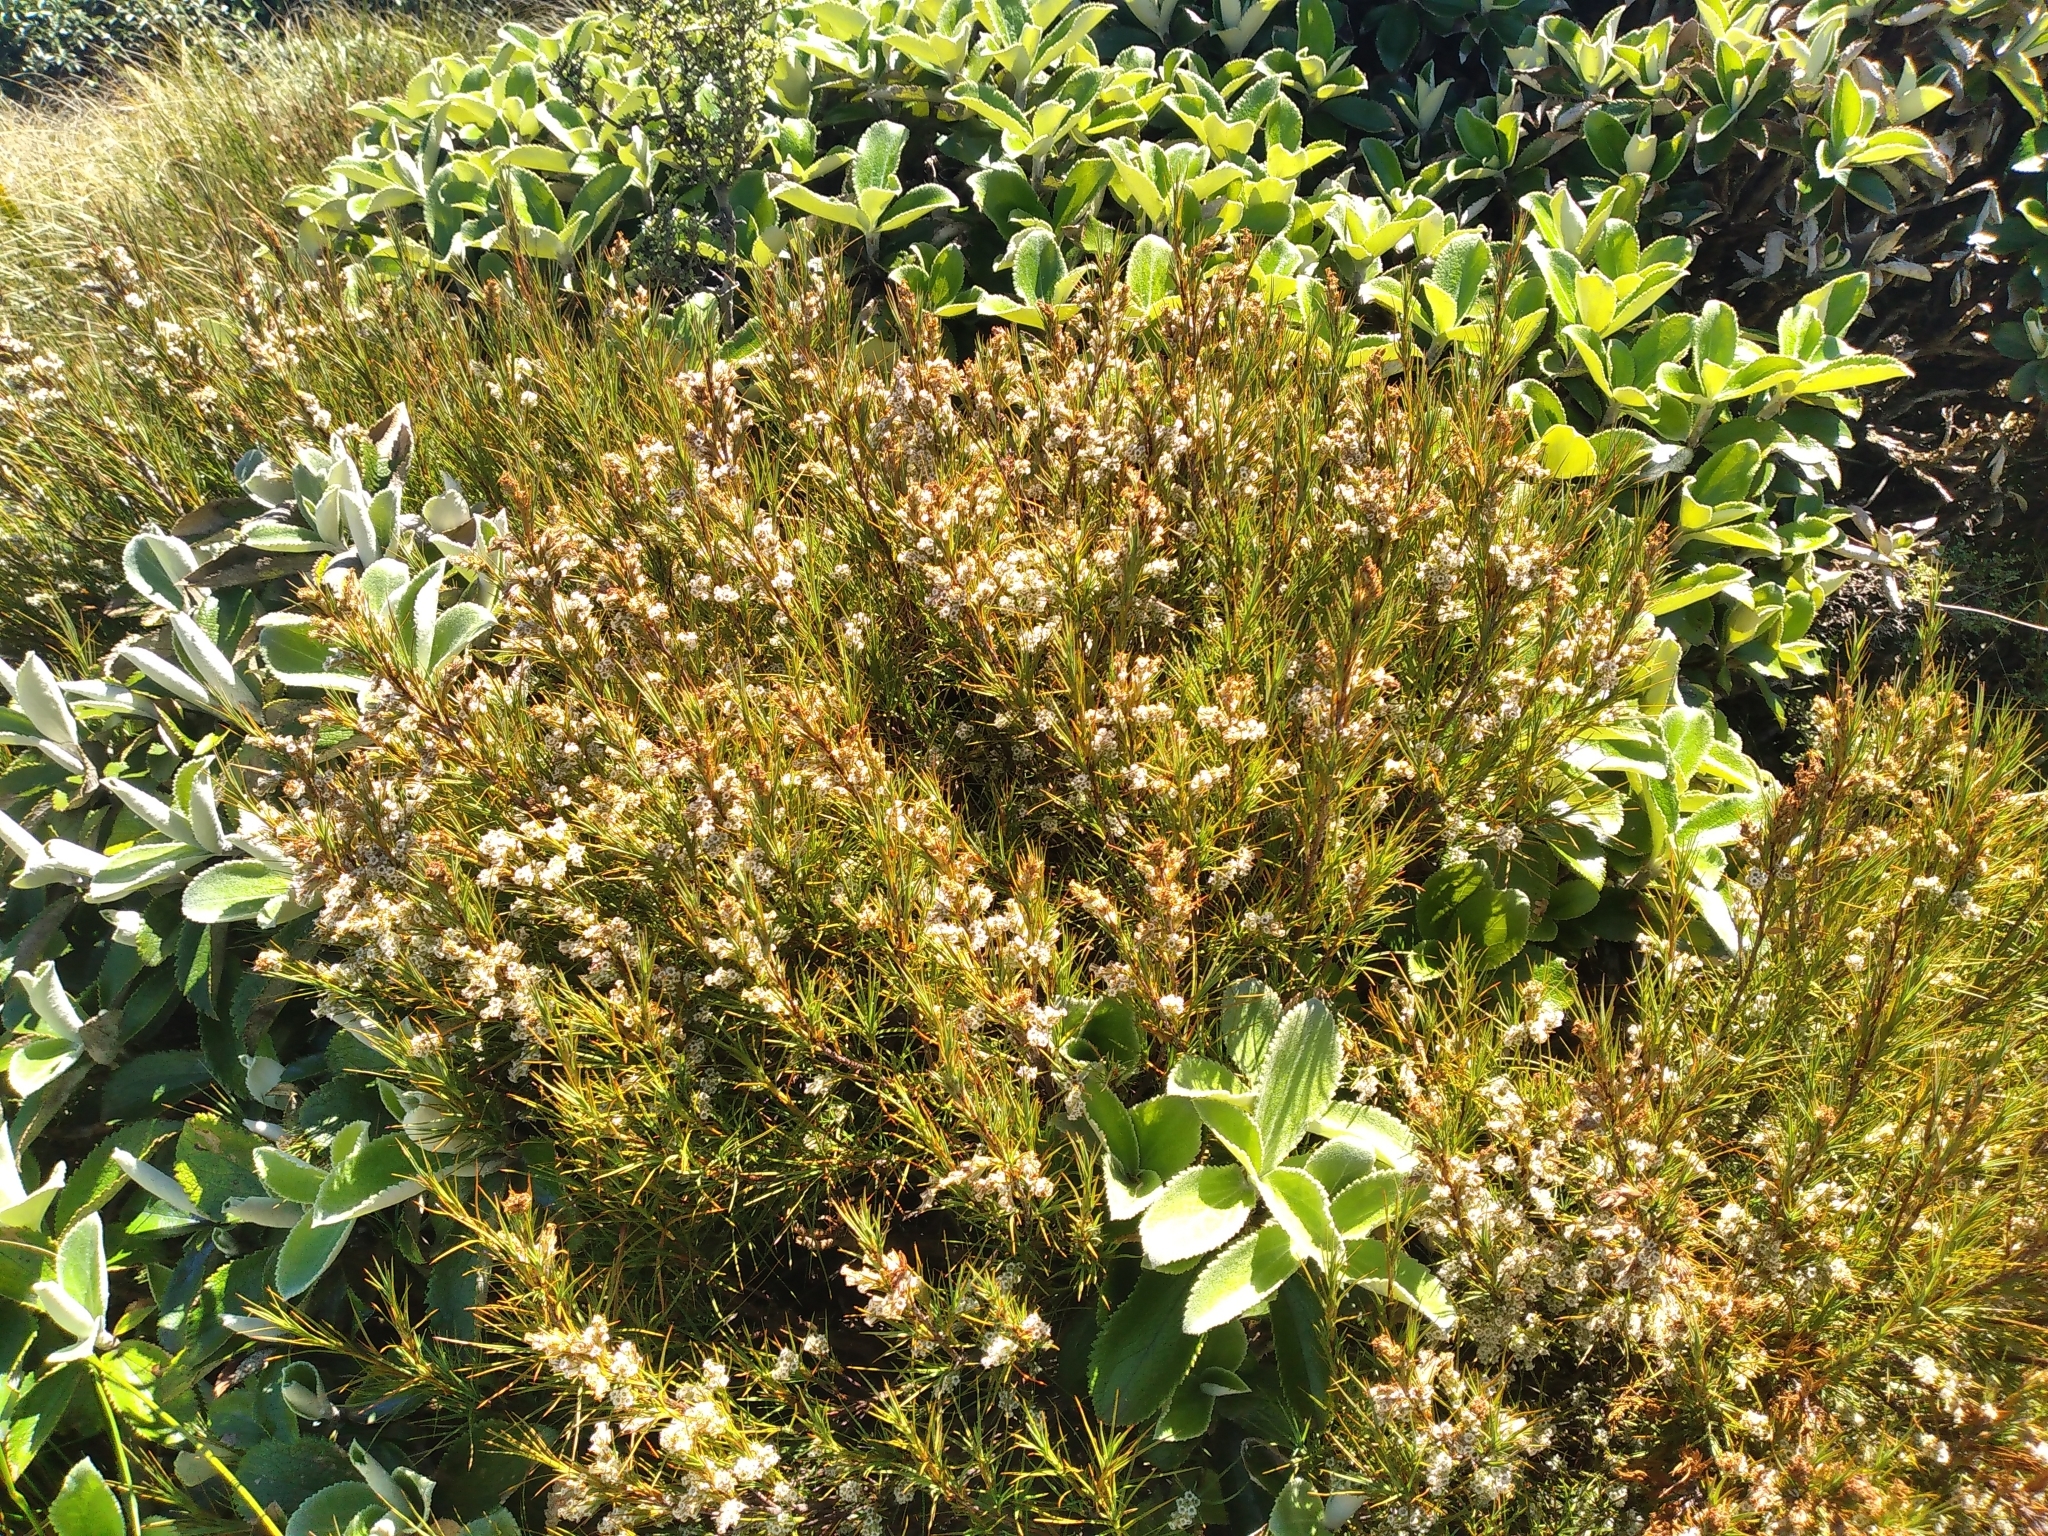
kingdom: Plantae
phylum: Tracheophyta
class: Magnoliopsida
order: Ericales
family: Ericaceae
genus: Dracophyllum
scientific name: Dracophyllum
